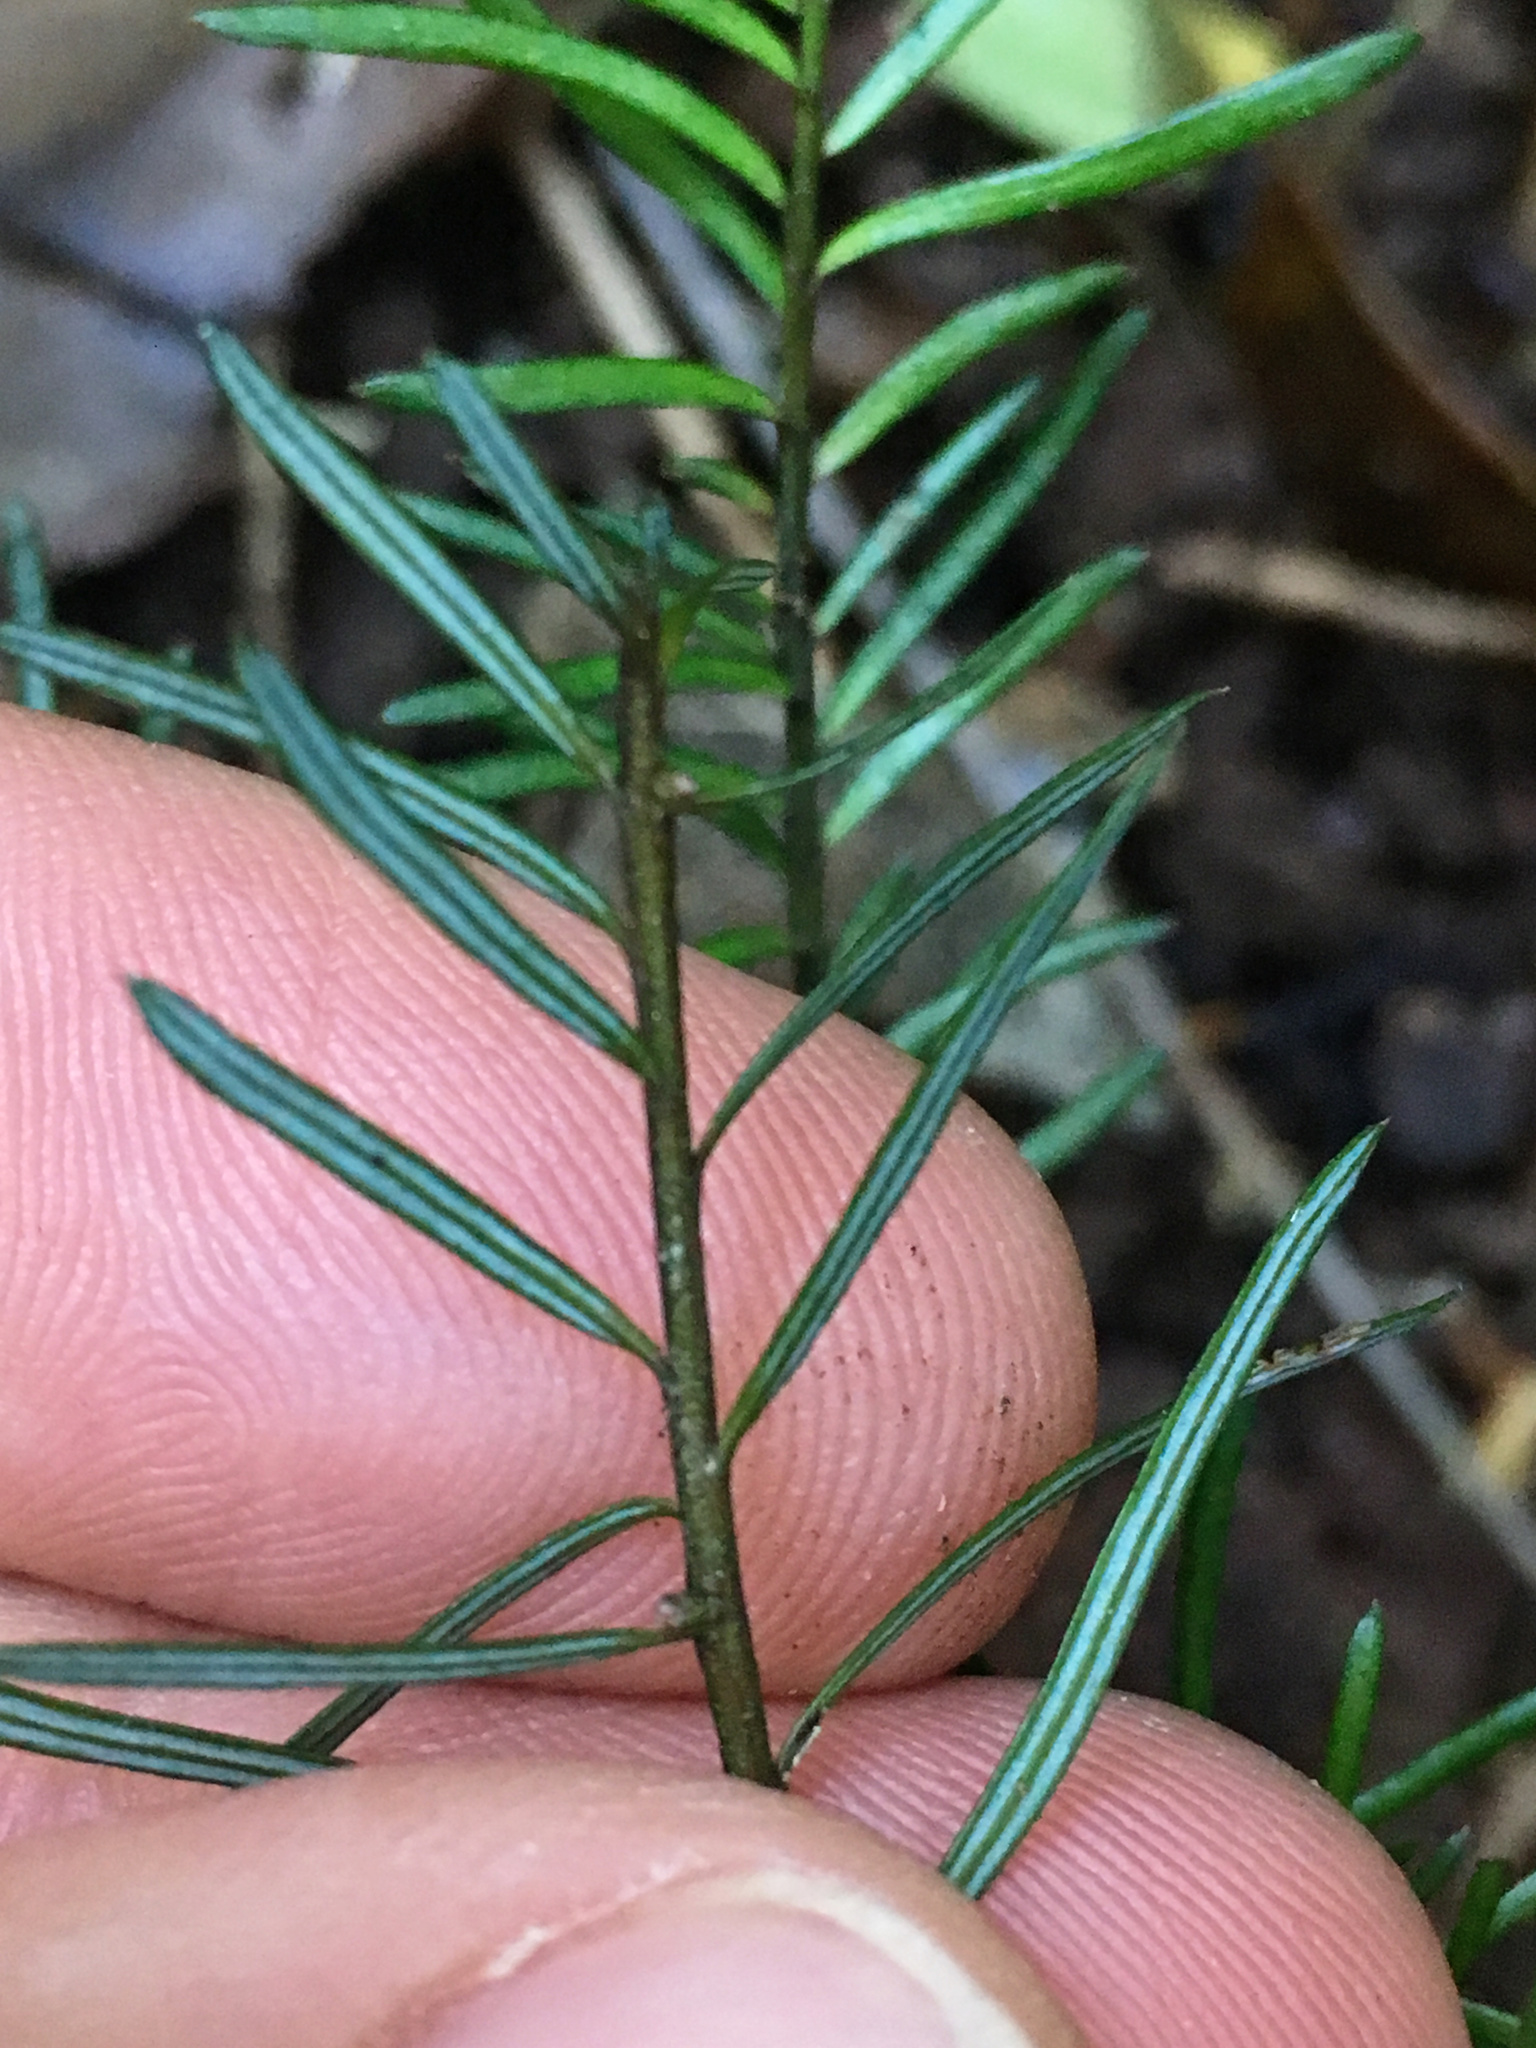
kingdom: Plantae
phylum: Tracheophyta
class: Pinopsida
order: Pinales
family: Podocarpaceae
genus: Prumnopitys
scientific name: Prumnopitys taxifolia
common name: Matai
